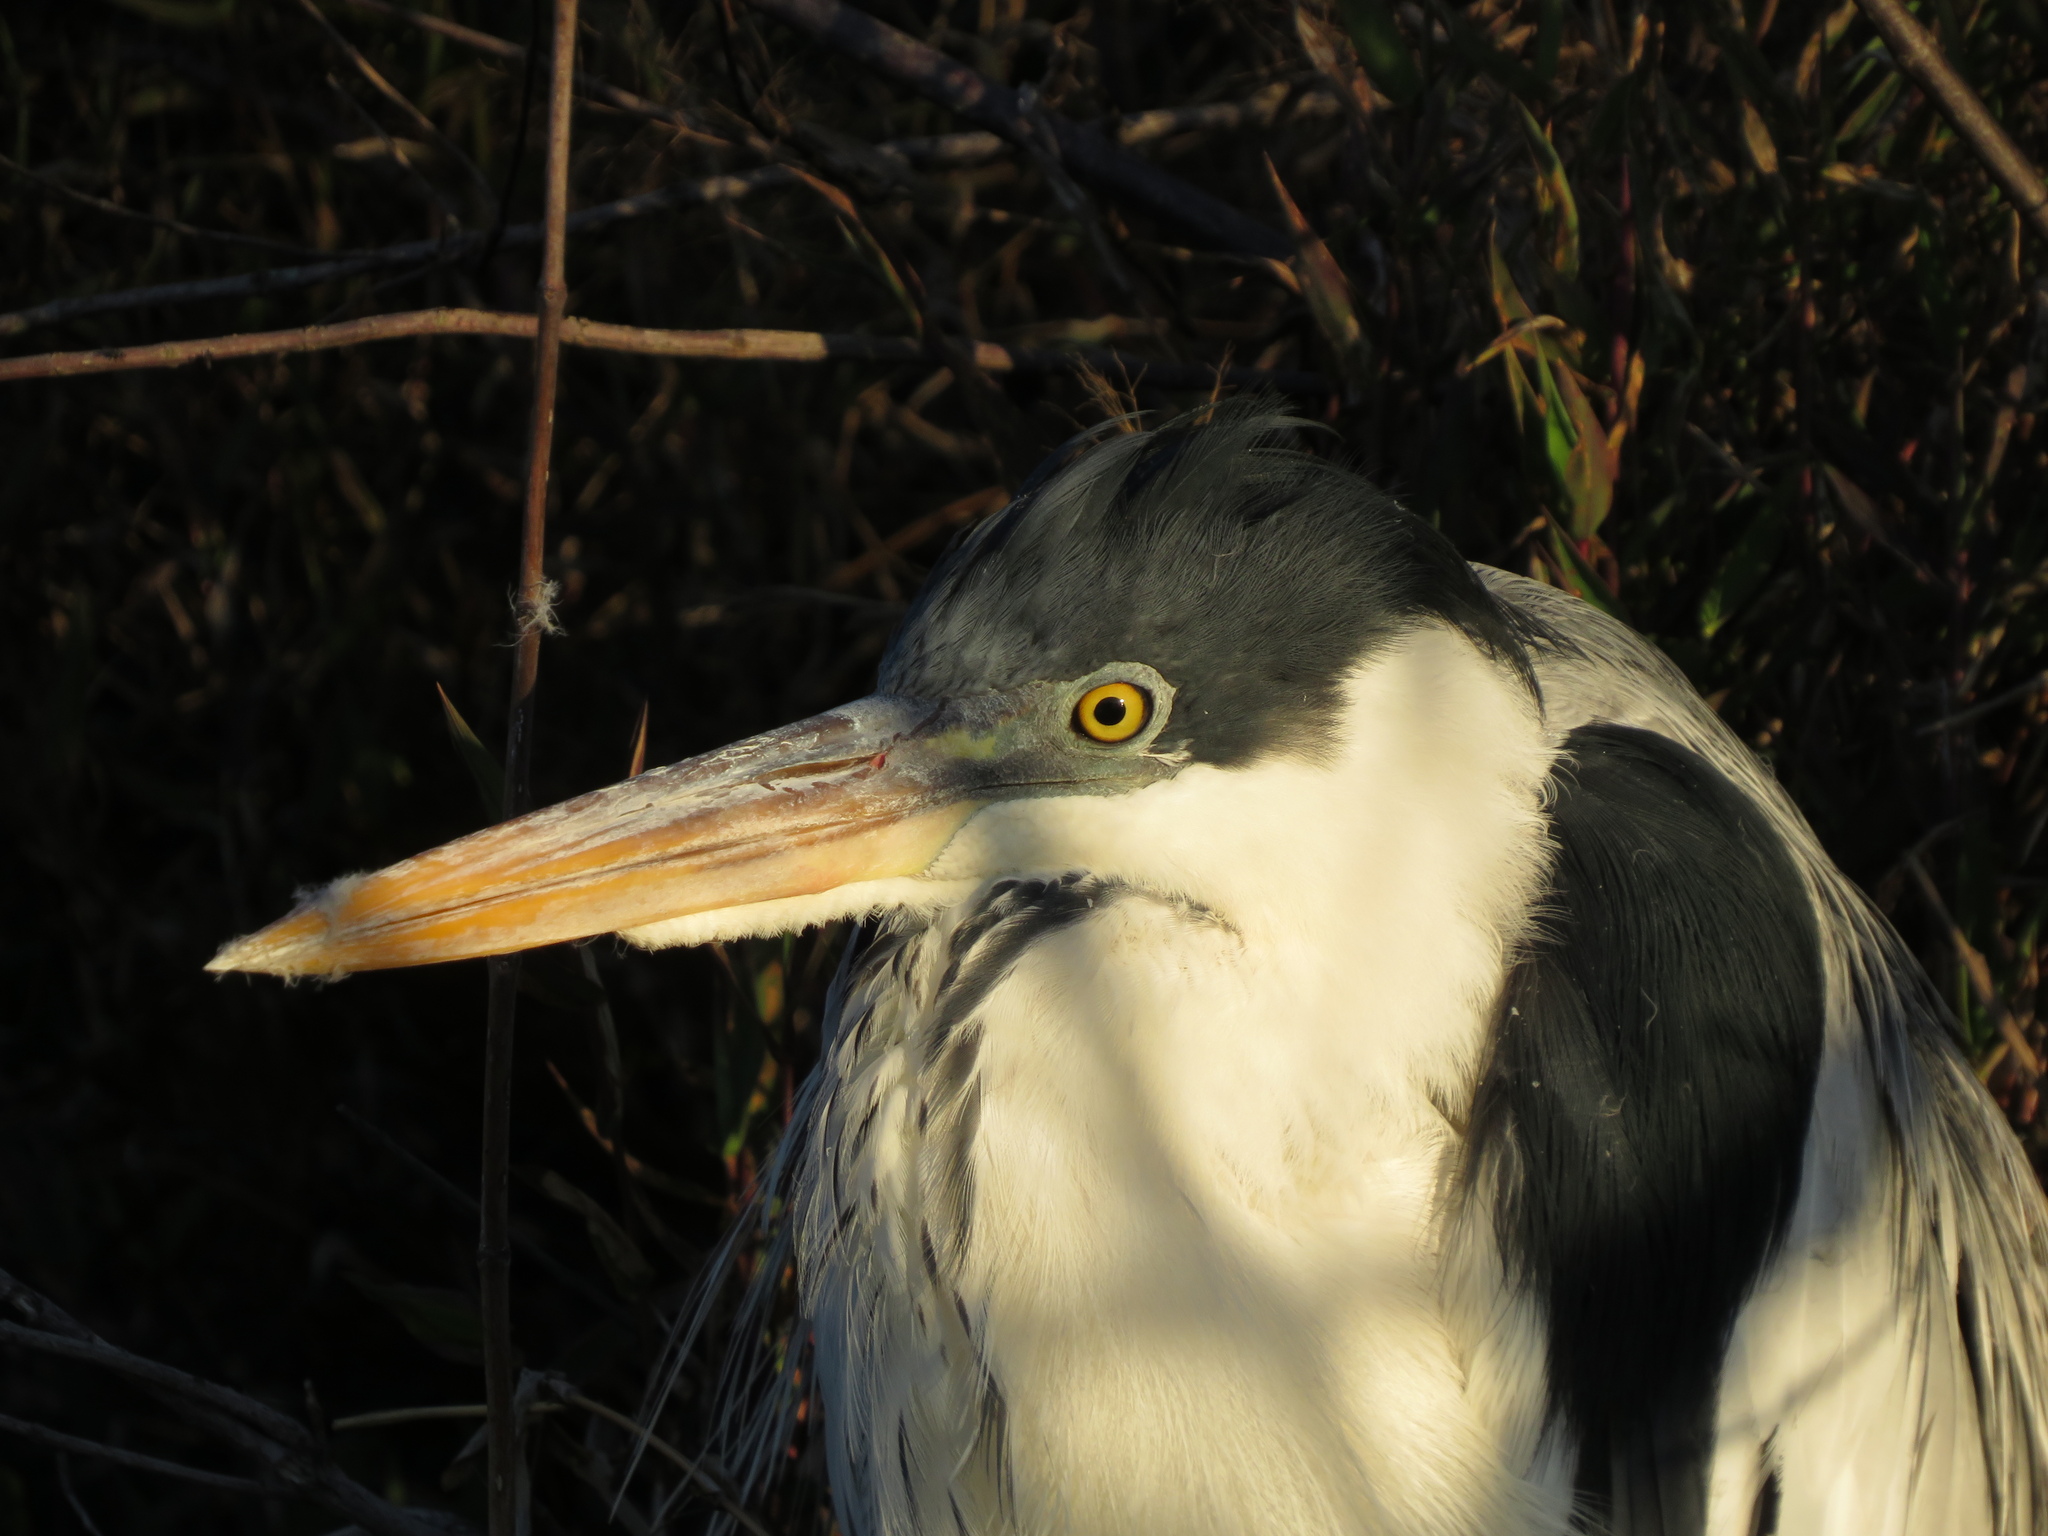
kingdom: Animalia
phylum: Chordata
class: Aves
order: Pelecaniformes
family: Ardeidae
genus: Ardea
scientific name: Ardea cocoi
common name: Cocoi heron
